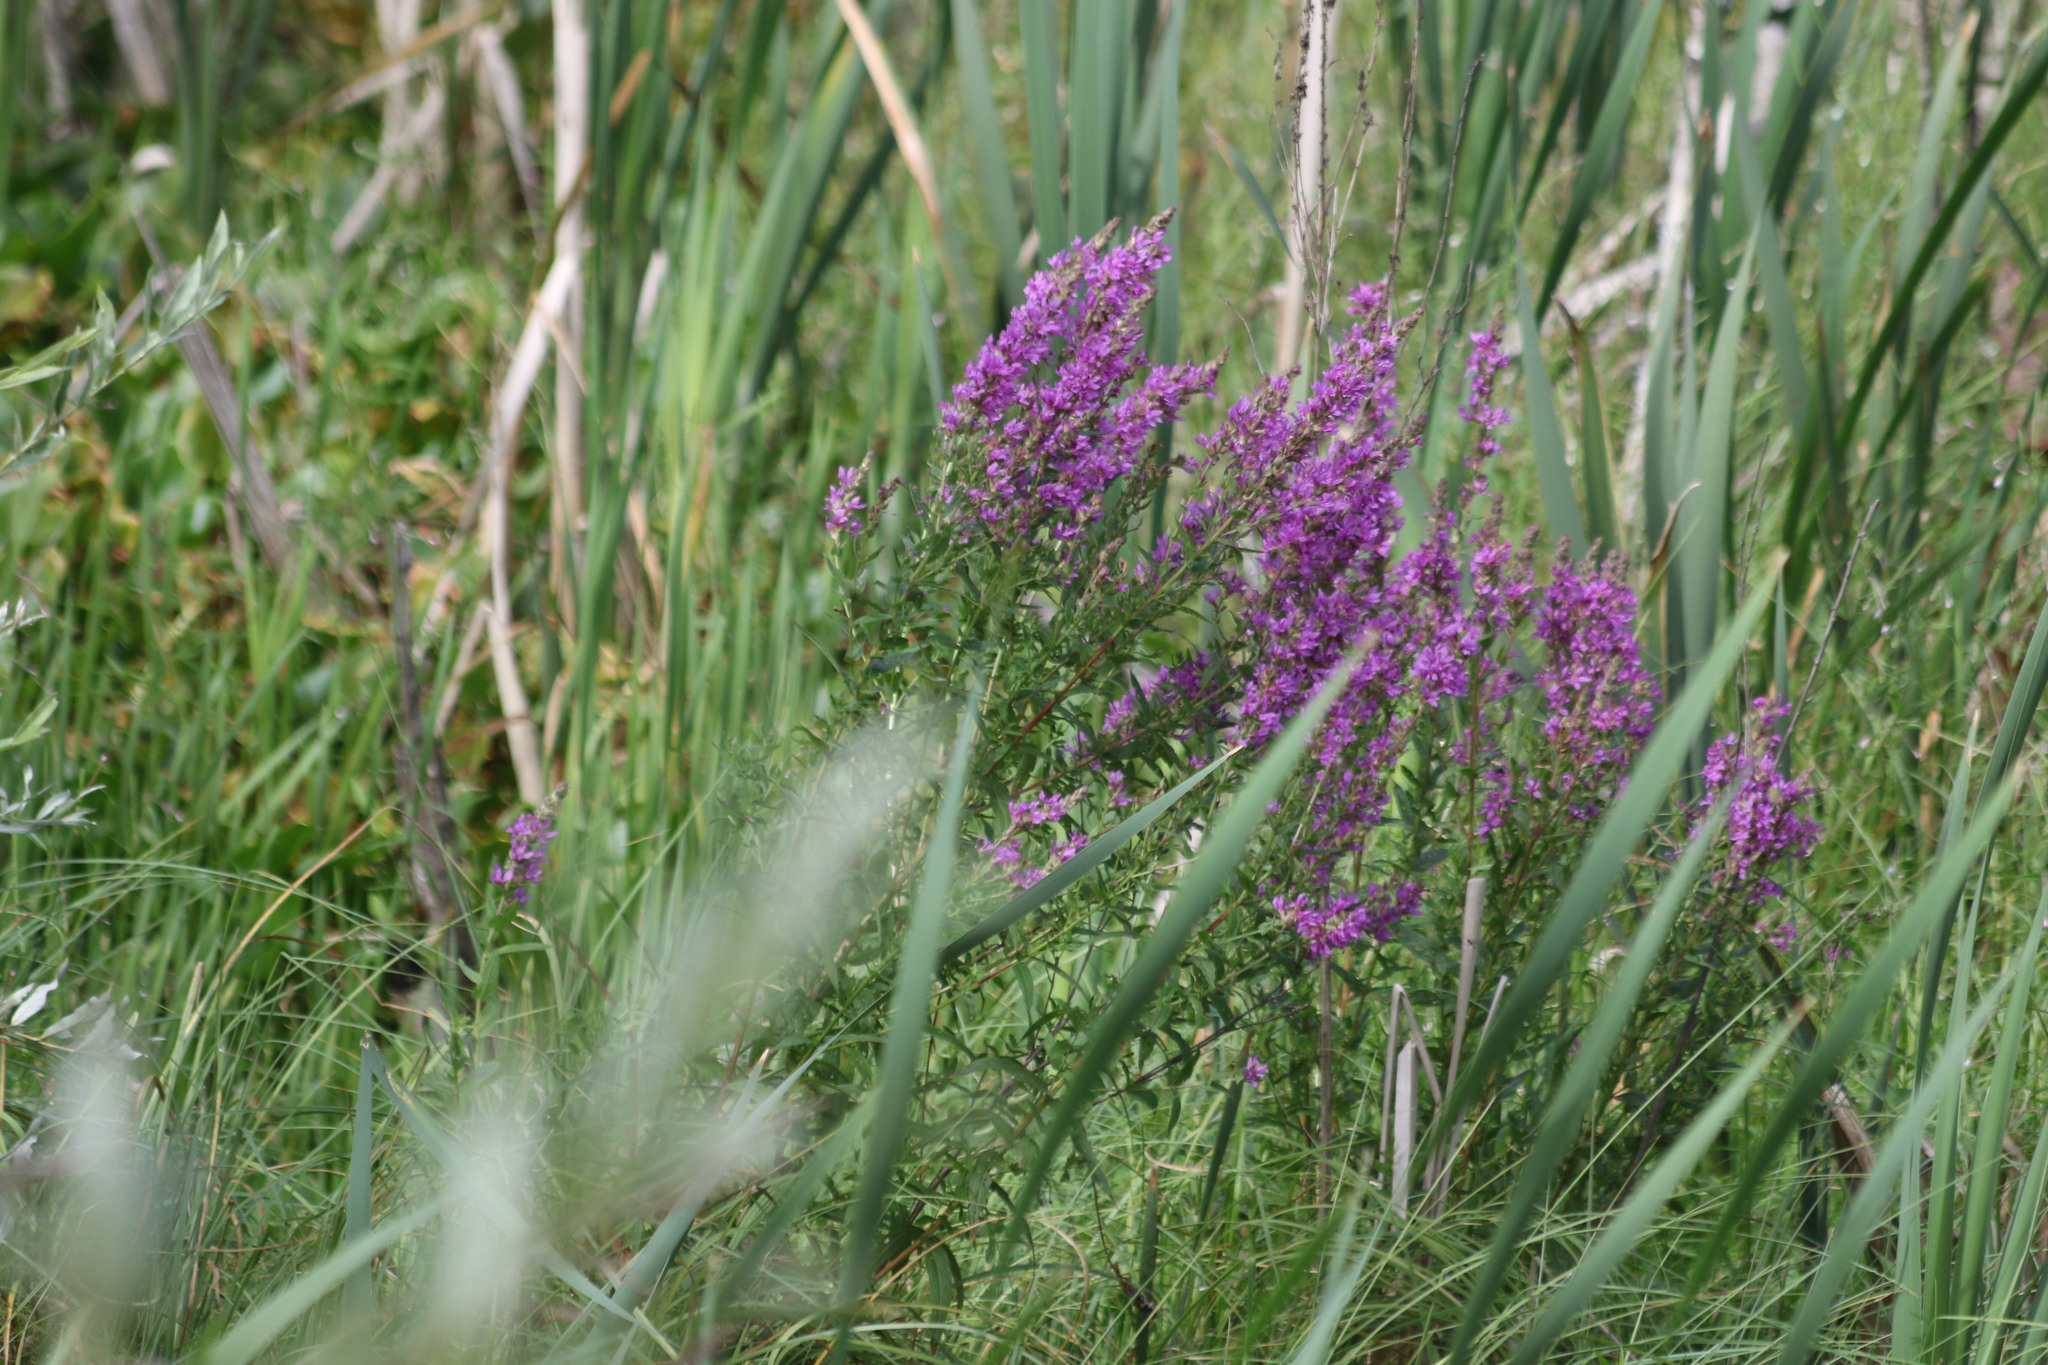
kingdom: Plantae
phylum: Tracheophyta
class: Magnoliopsida
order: Myrtales
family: Lythraceae
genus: Lythrum
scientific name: Lythrum salicaria
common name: Purple loosestrife
